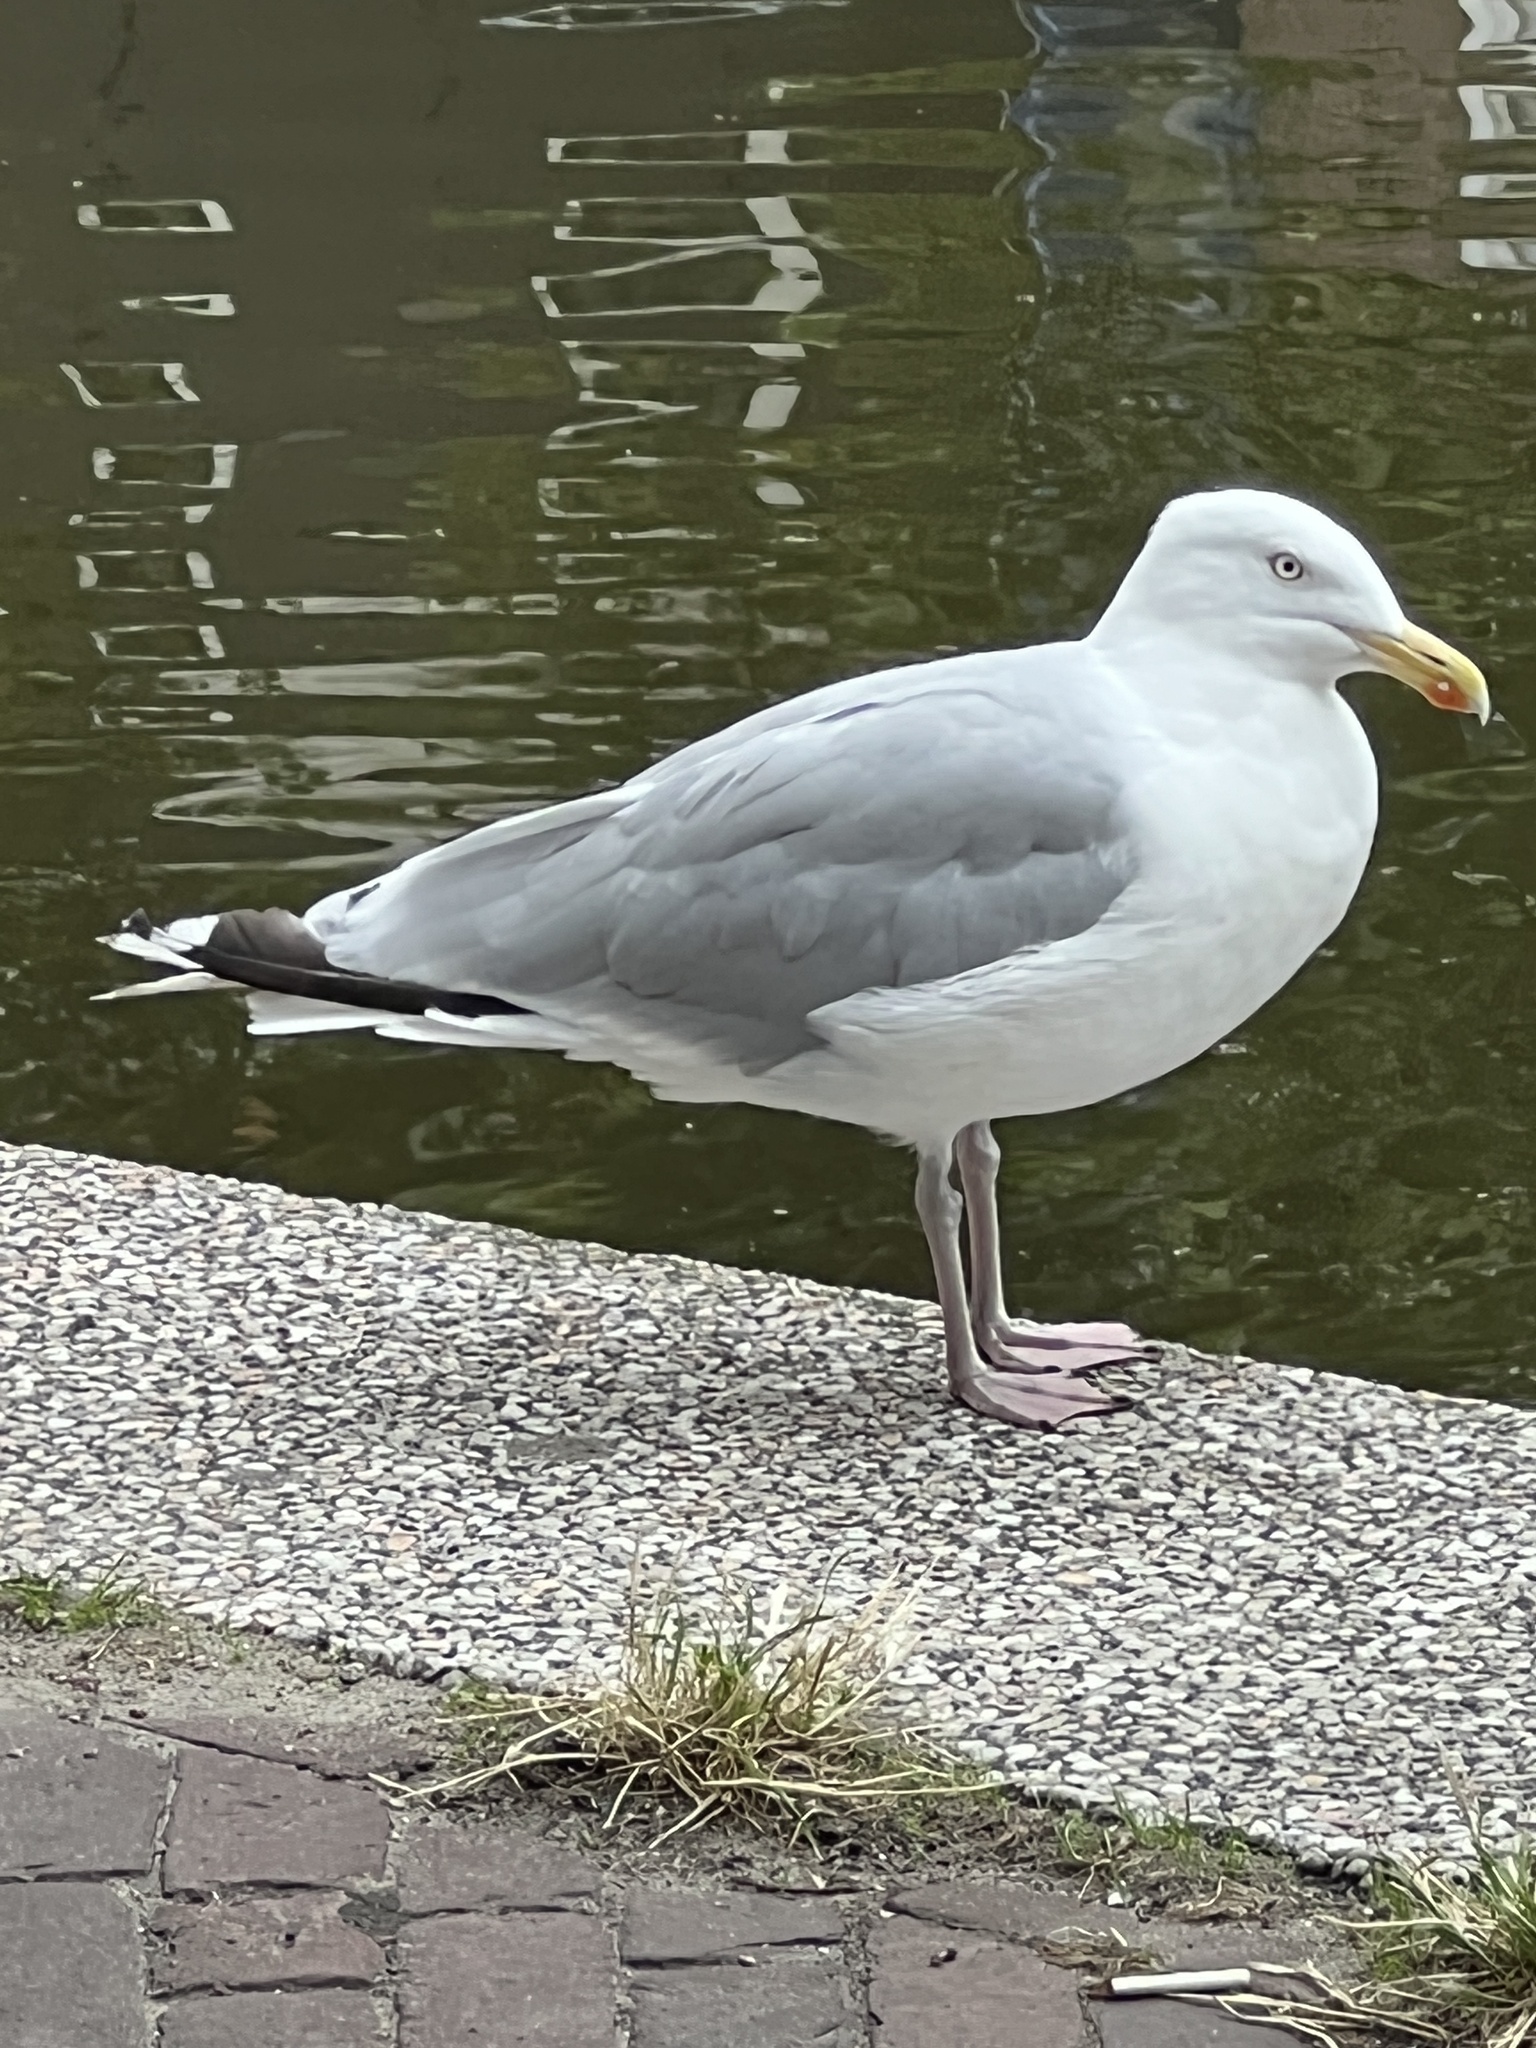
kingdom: Animalia
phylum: Chordata
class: Aves
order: Charadriiformes
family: Laridae
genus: Larus
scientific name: Larus argentatus
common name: Herring gull
